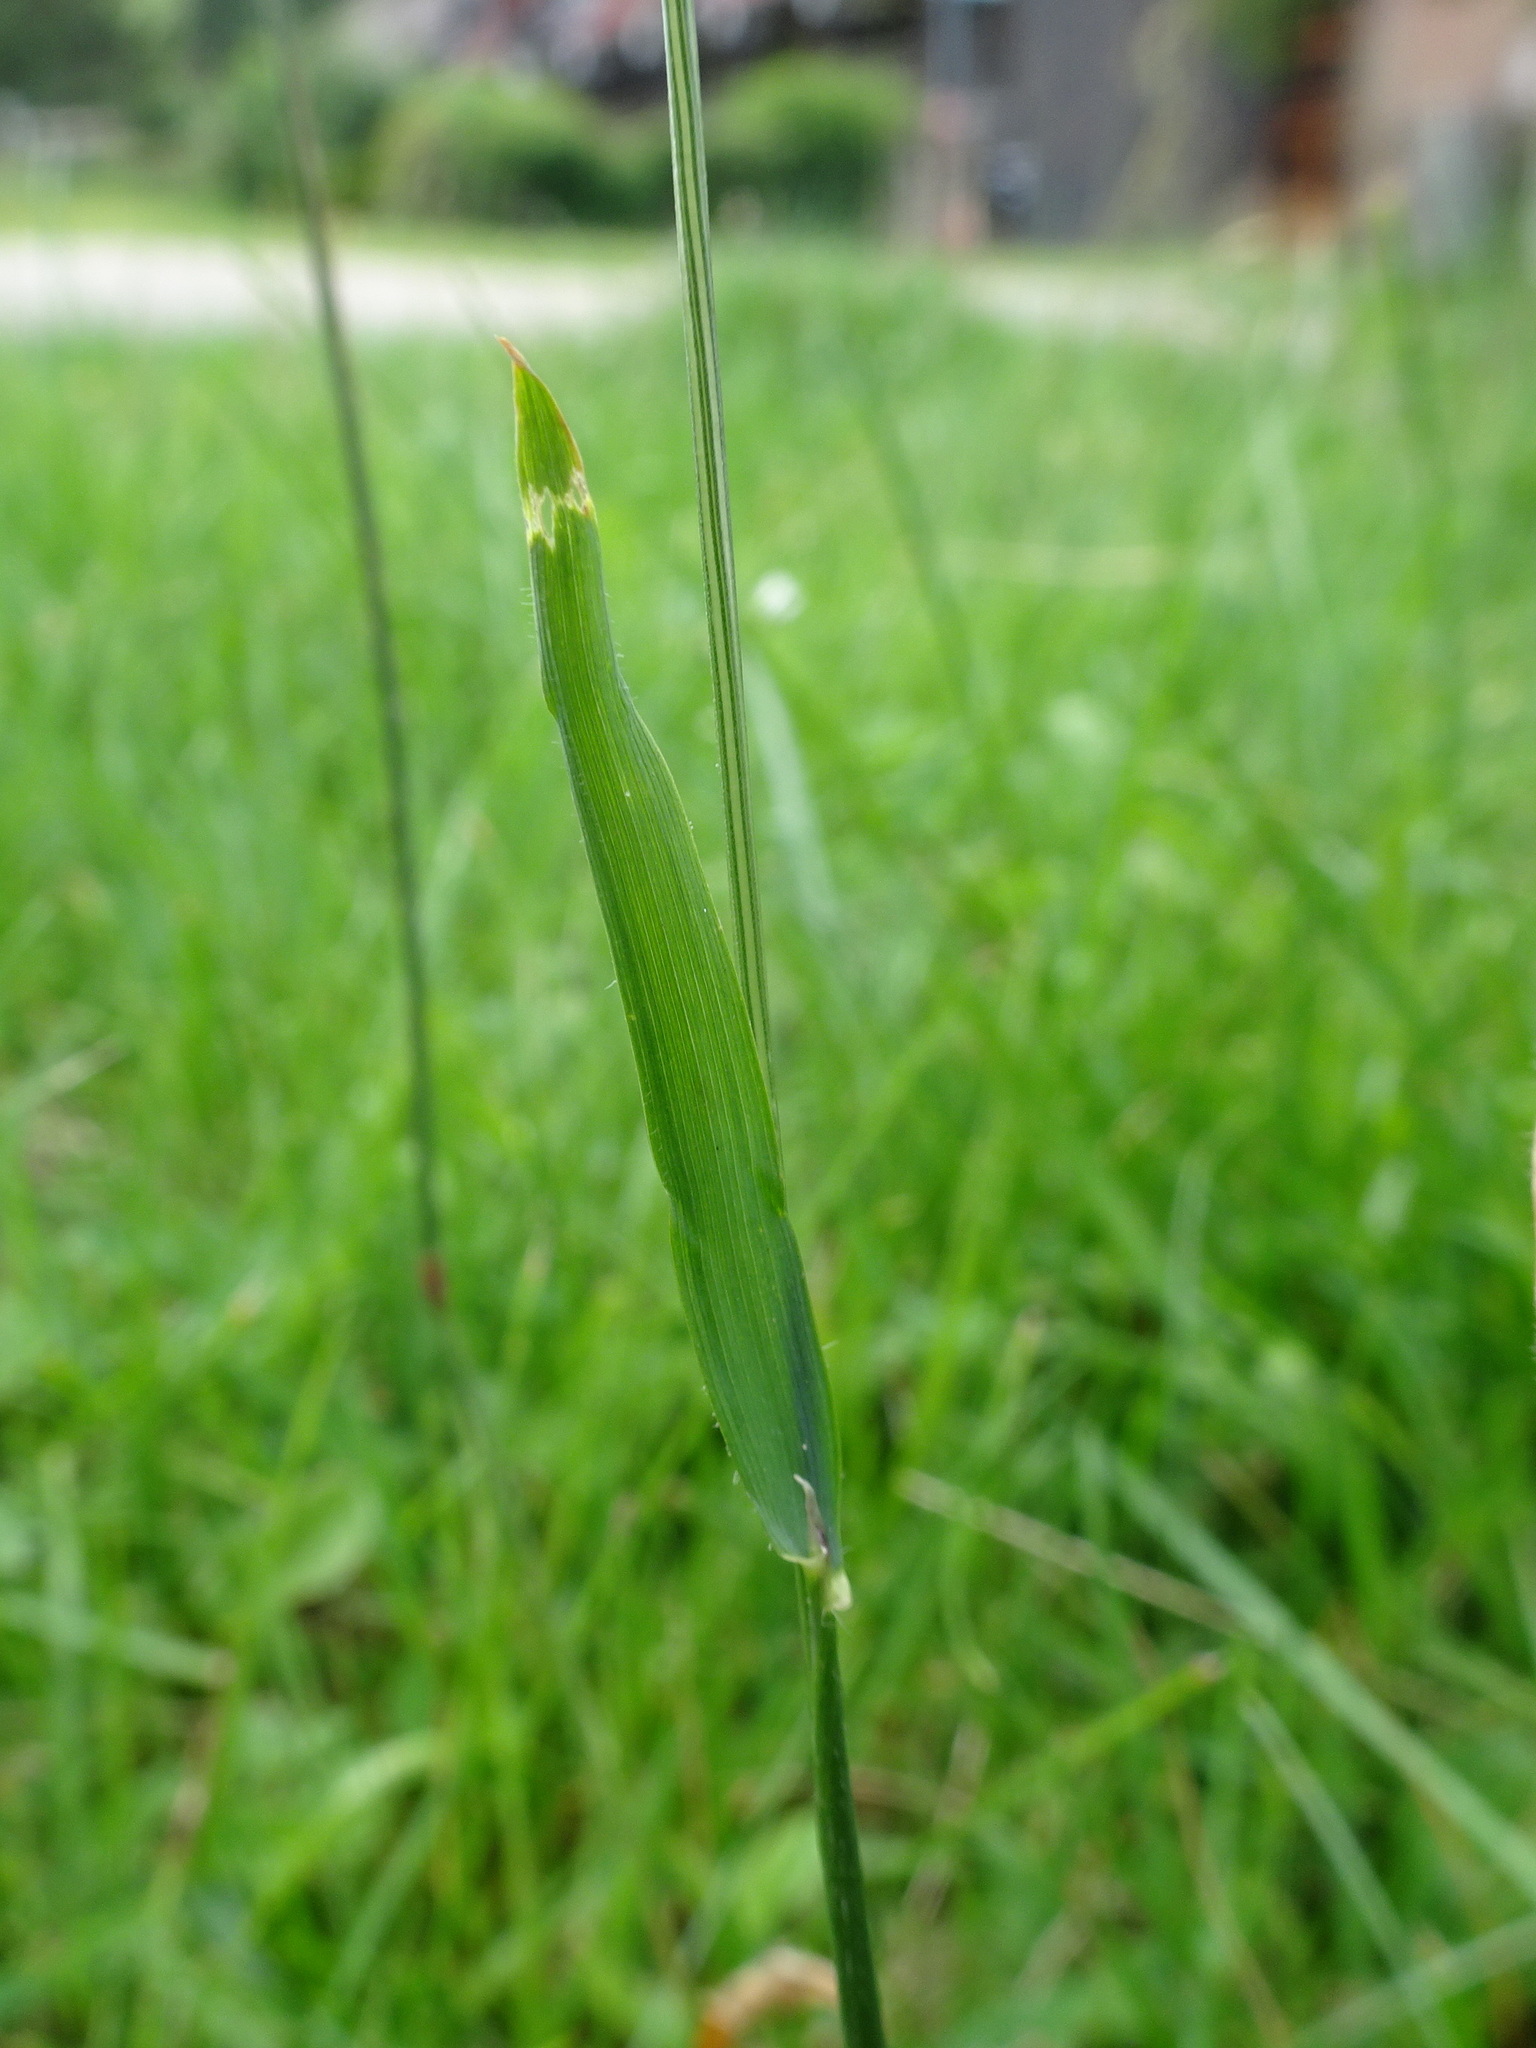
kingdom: Plantae
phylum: Tracheophyta
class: Liliopsida
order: Poales
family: Poaceae
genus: Anthoxanthum
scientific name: Anthoxanthum odoratum
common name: Sweet vernalgrass
